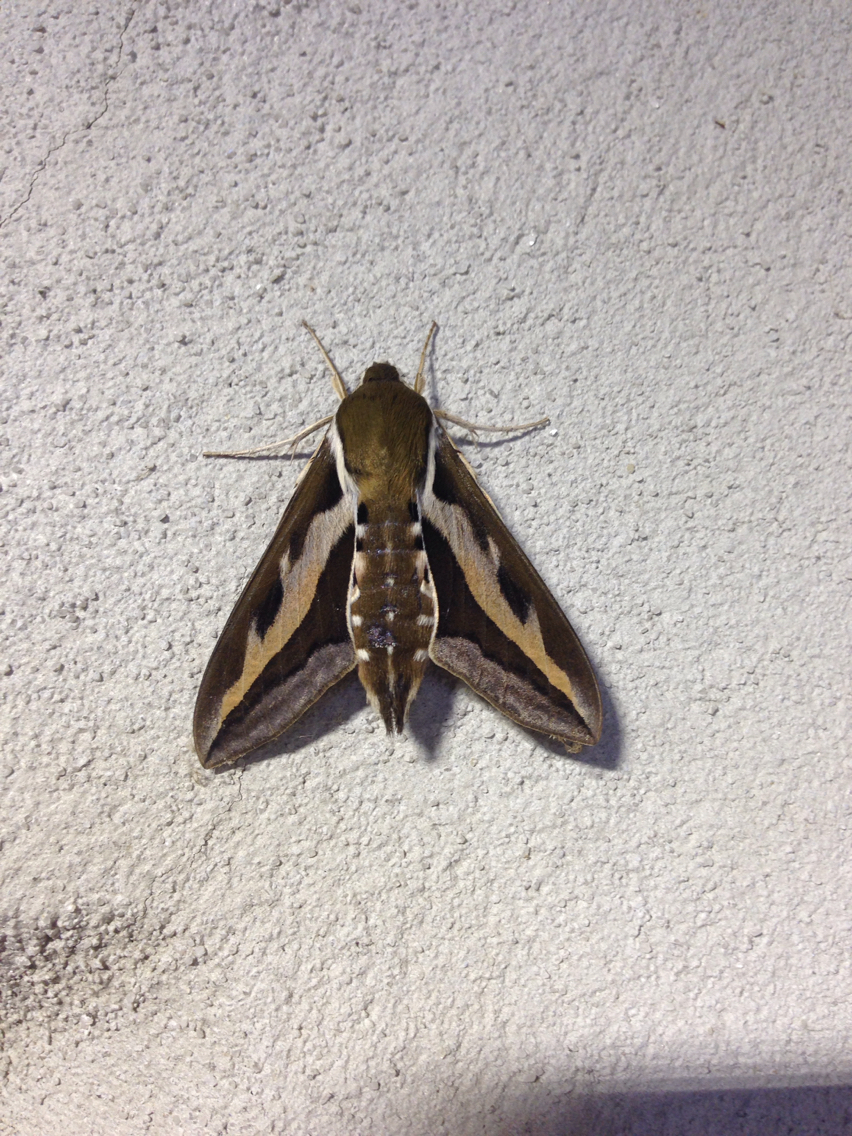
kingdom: Animalia
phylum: Arthropoda
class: Insecta
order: Lepidoptera
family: Sphingidae
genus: Hyles
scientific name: Hyles gallii
